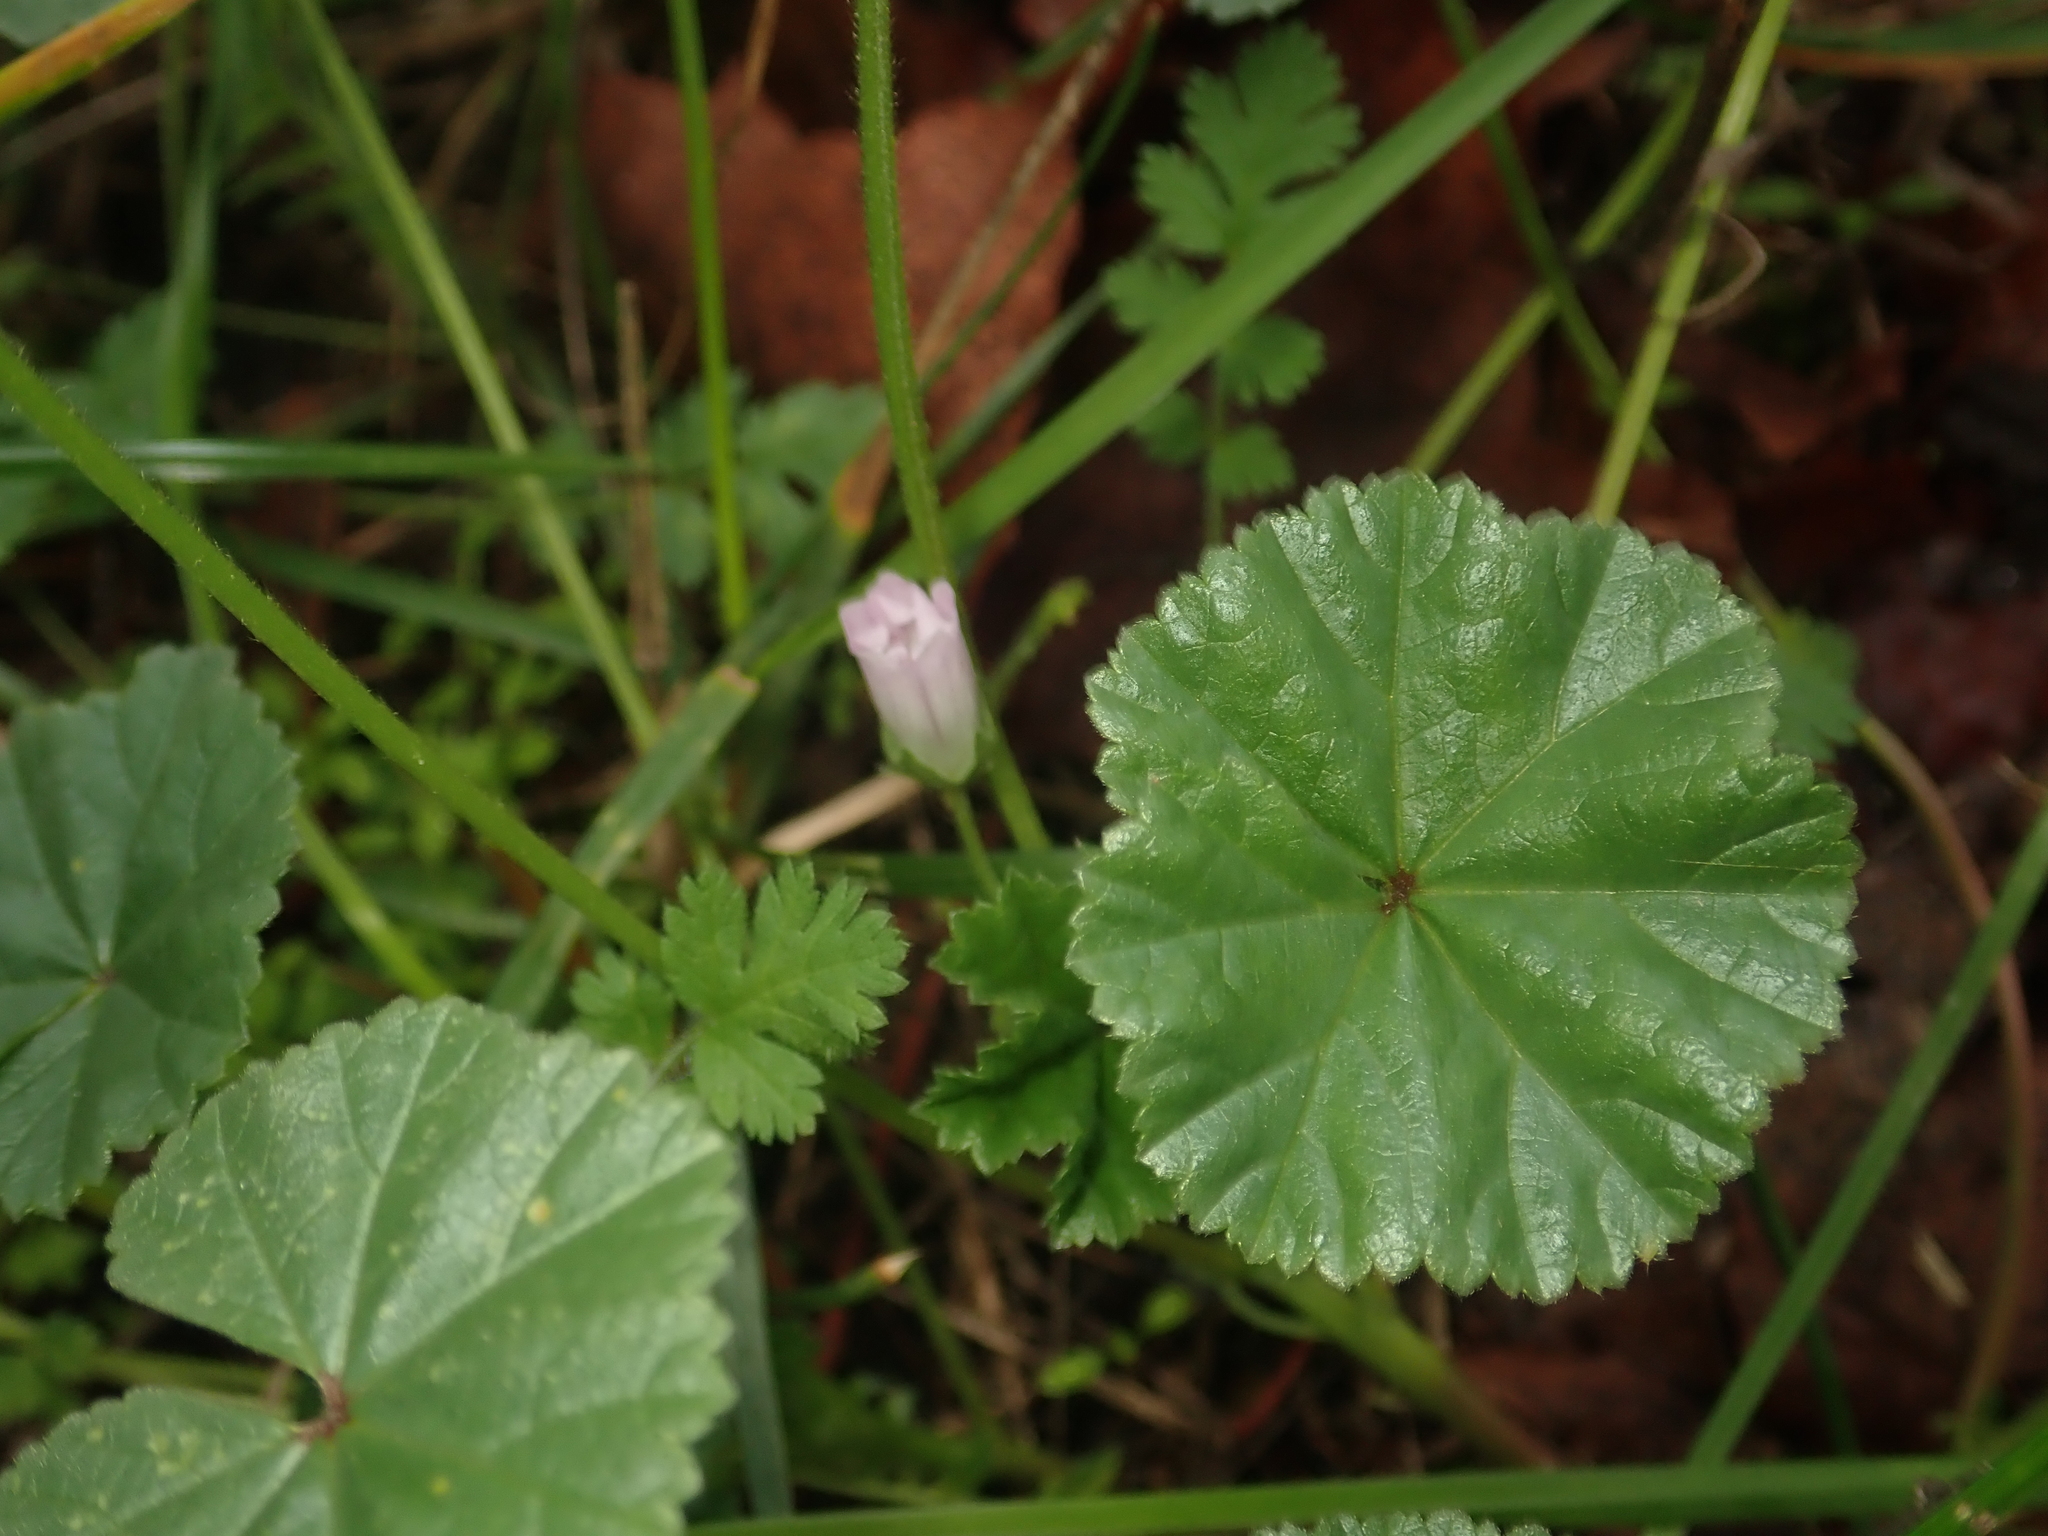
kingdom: Plantae
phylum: Tracheophyta
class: Magnoliopsida
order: Malvales
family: Malvaceae
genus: Malva
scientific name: Malva neglecta
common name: Common mallow
